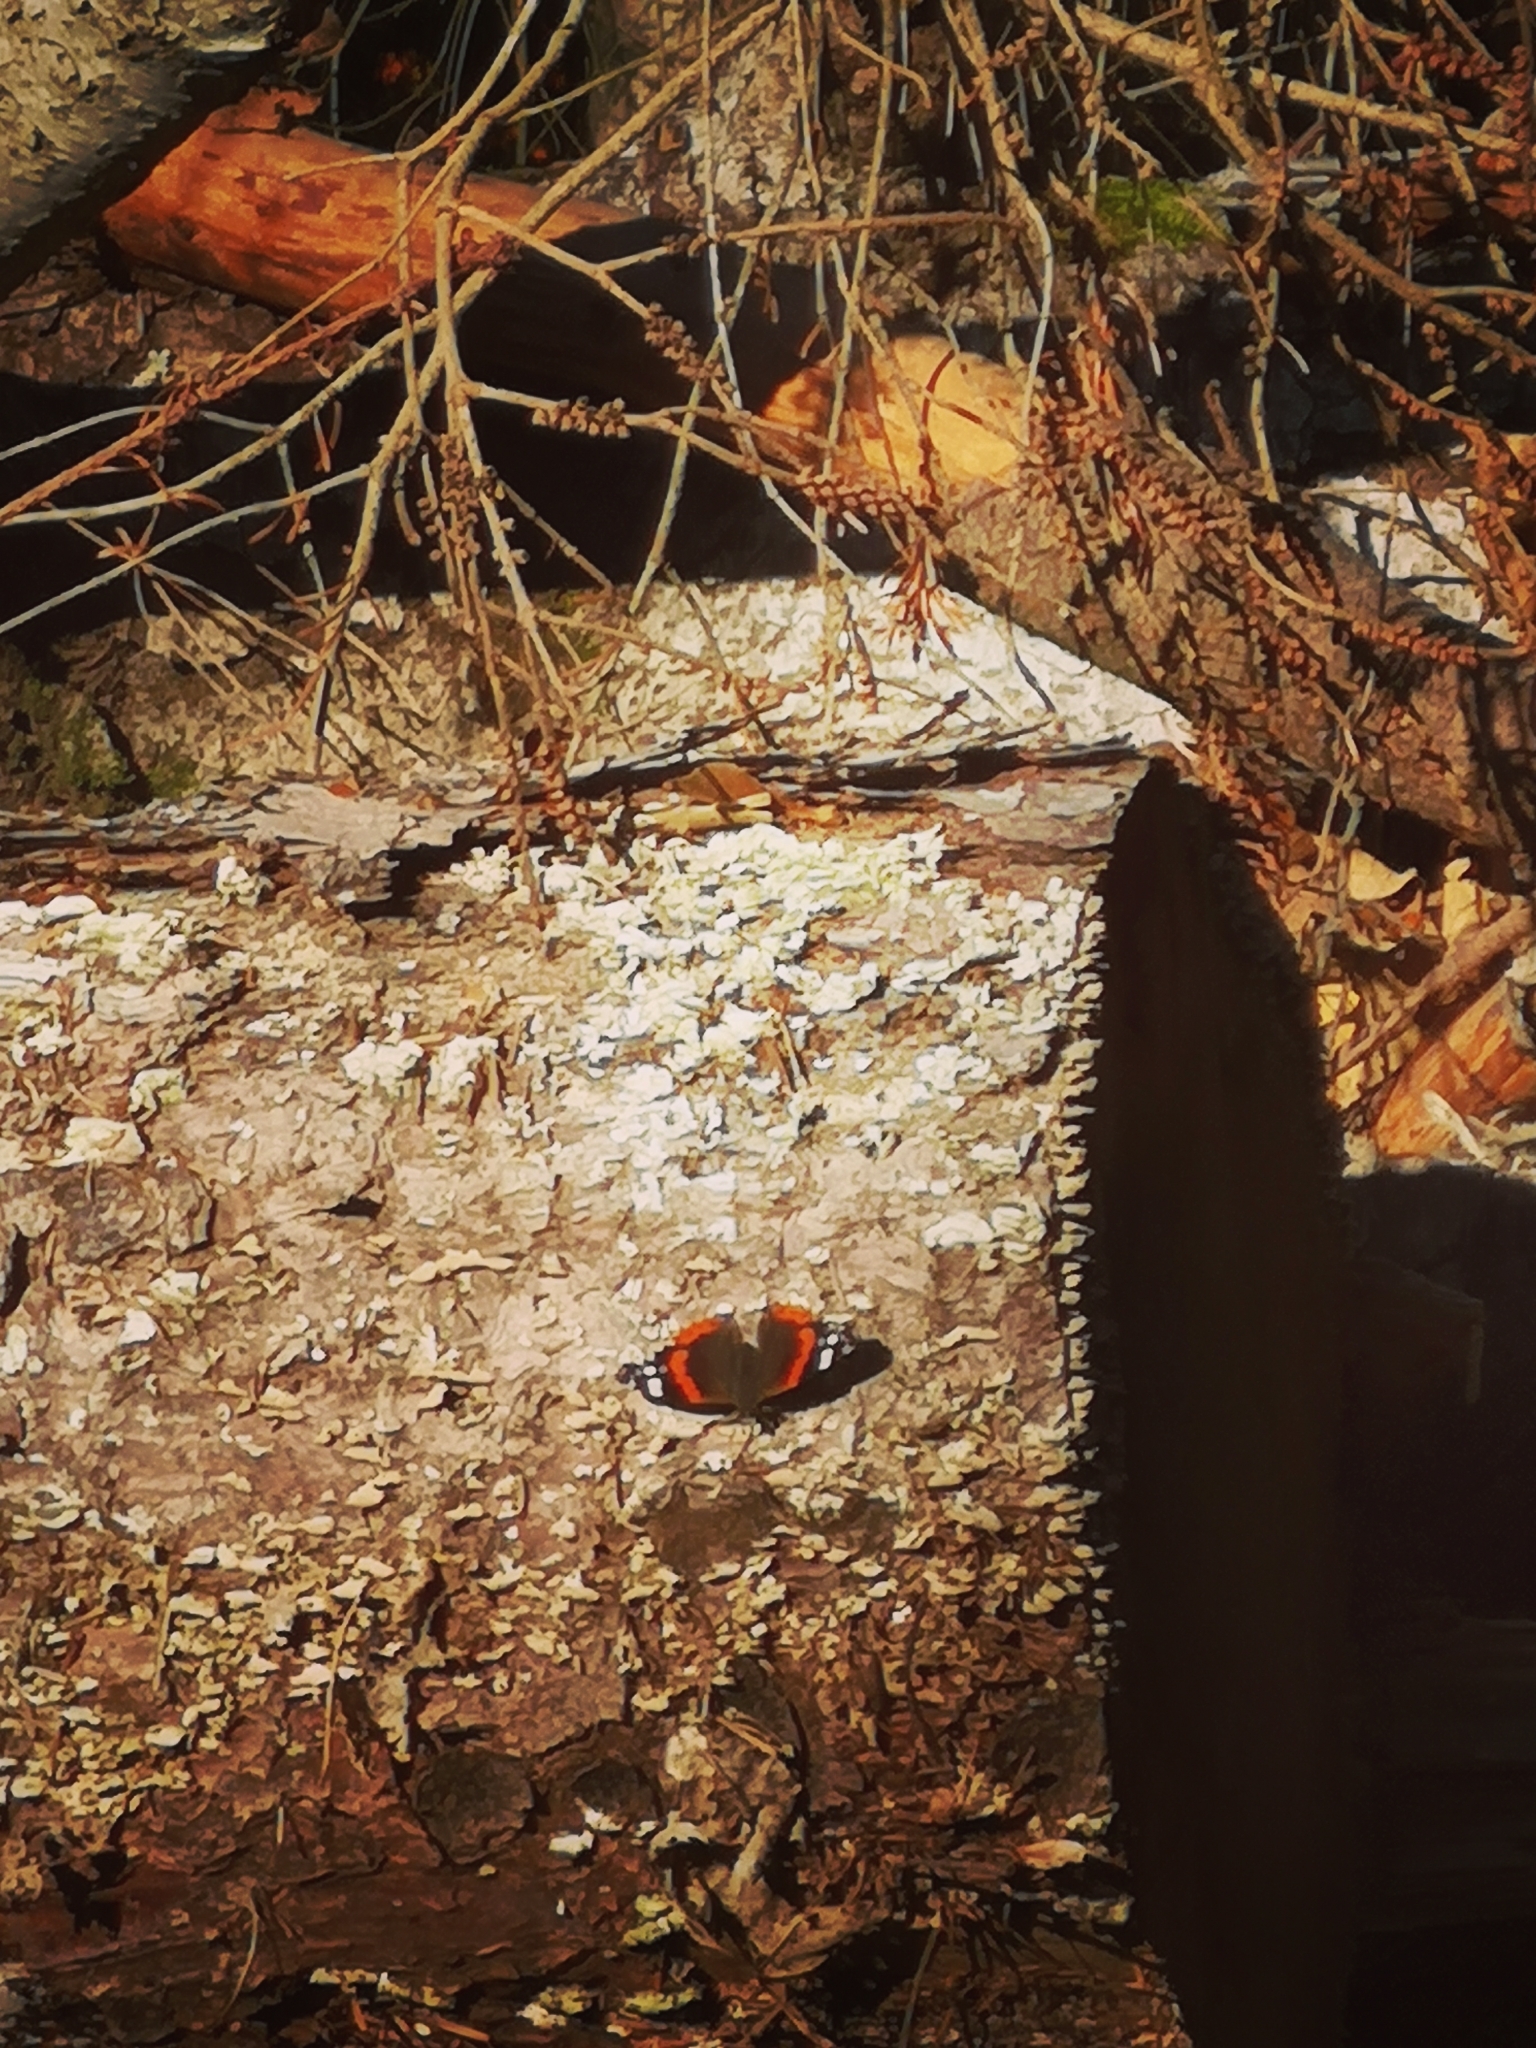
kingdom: Animalia
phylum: Arthropoda
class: Insecta
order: Lepidoptera
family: Nymphalidae
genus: Vanessa
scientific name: Vanessa atalanta
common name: Red admiral
